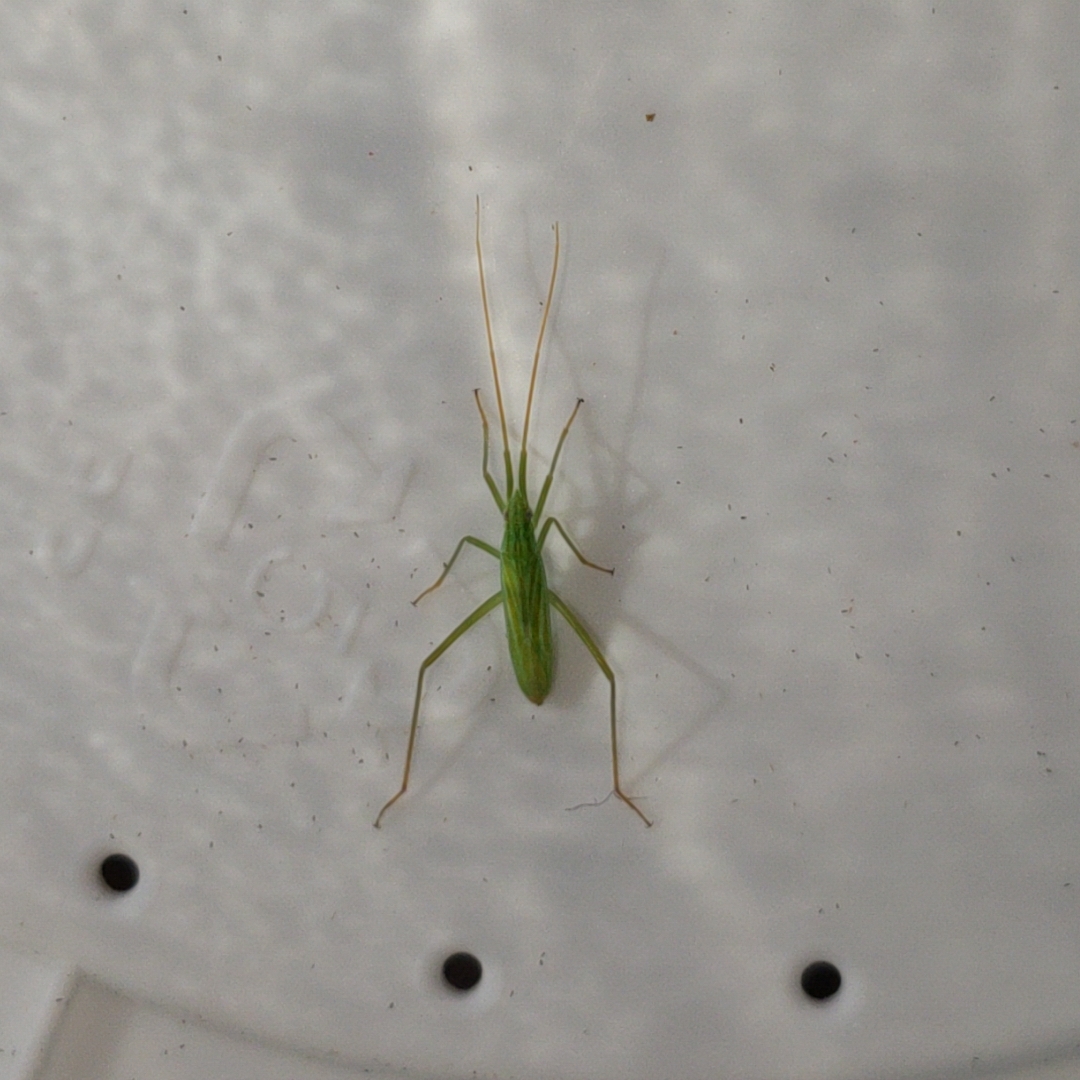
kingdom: Animalia
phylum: Arthropoda
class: Insecta
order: Hemiptera
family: Miridae
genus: Megaloceroea
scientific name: Megaloceroea recticornis
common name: Plant bug
